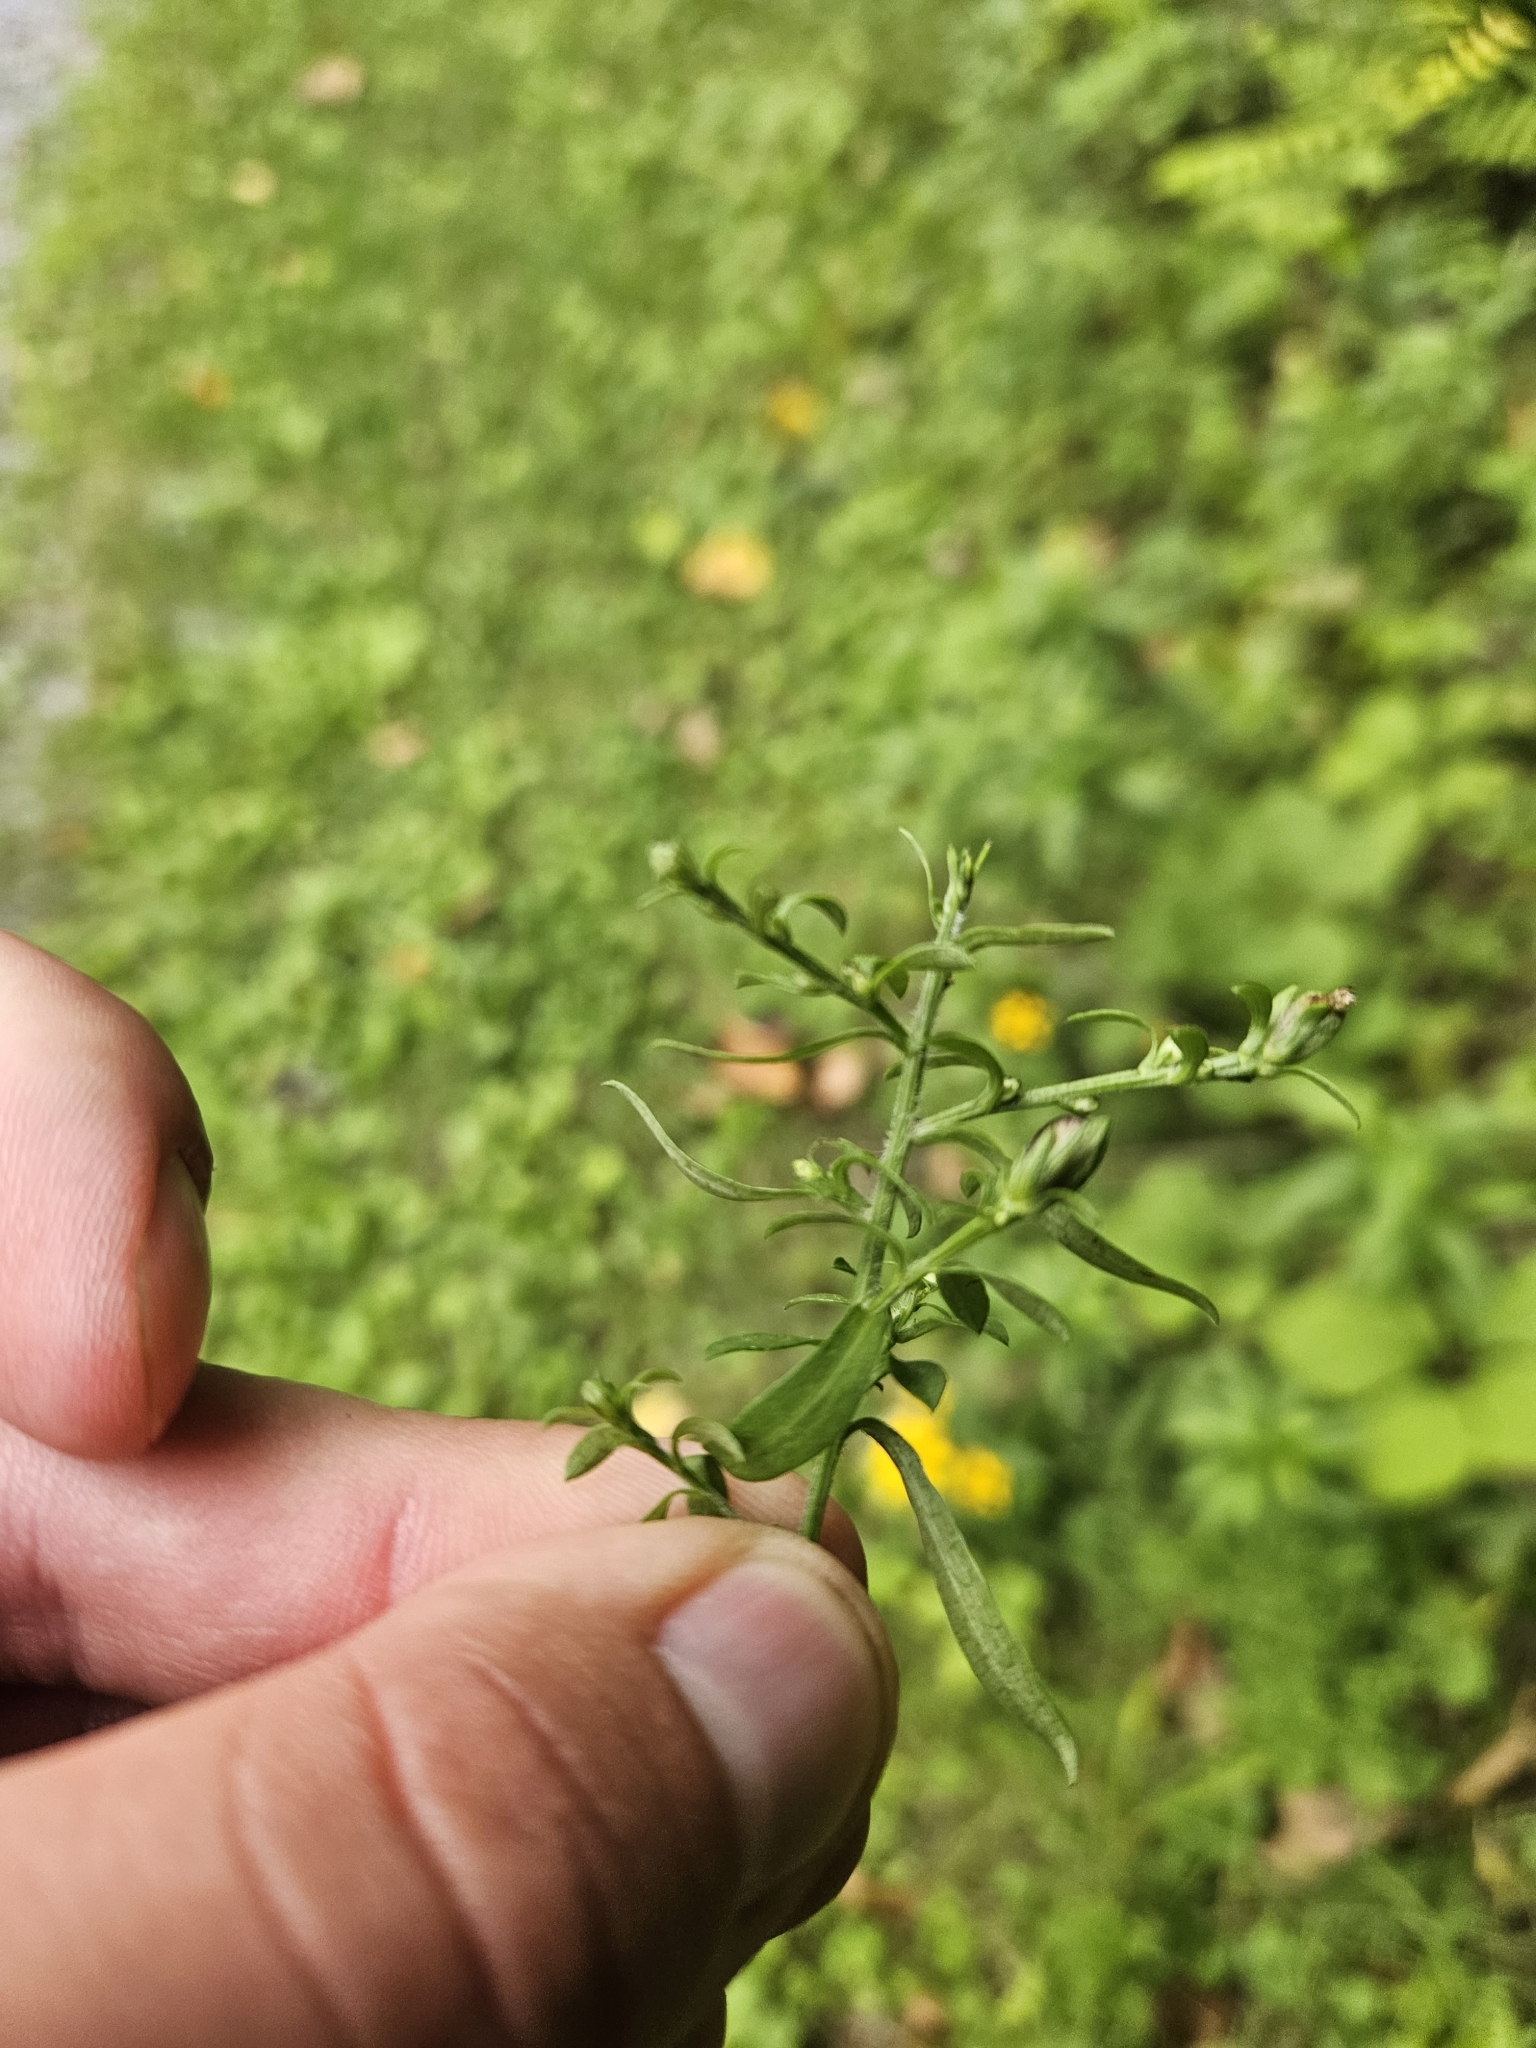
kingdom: Animalia
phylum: Arthropoda
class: Insecta
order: Diptera
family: Cecidomyiidae
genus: Asphondylia
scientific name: Asphondylia imbricata
